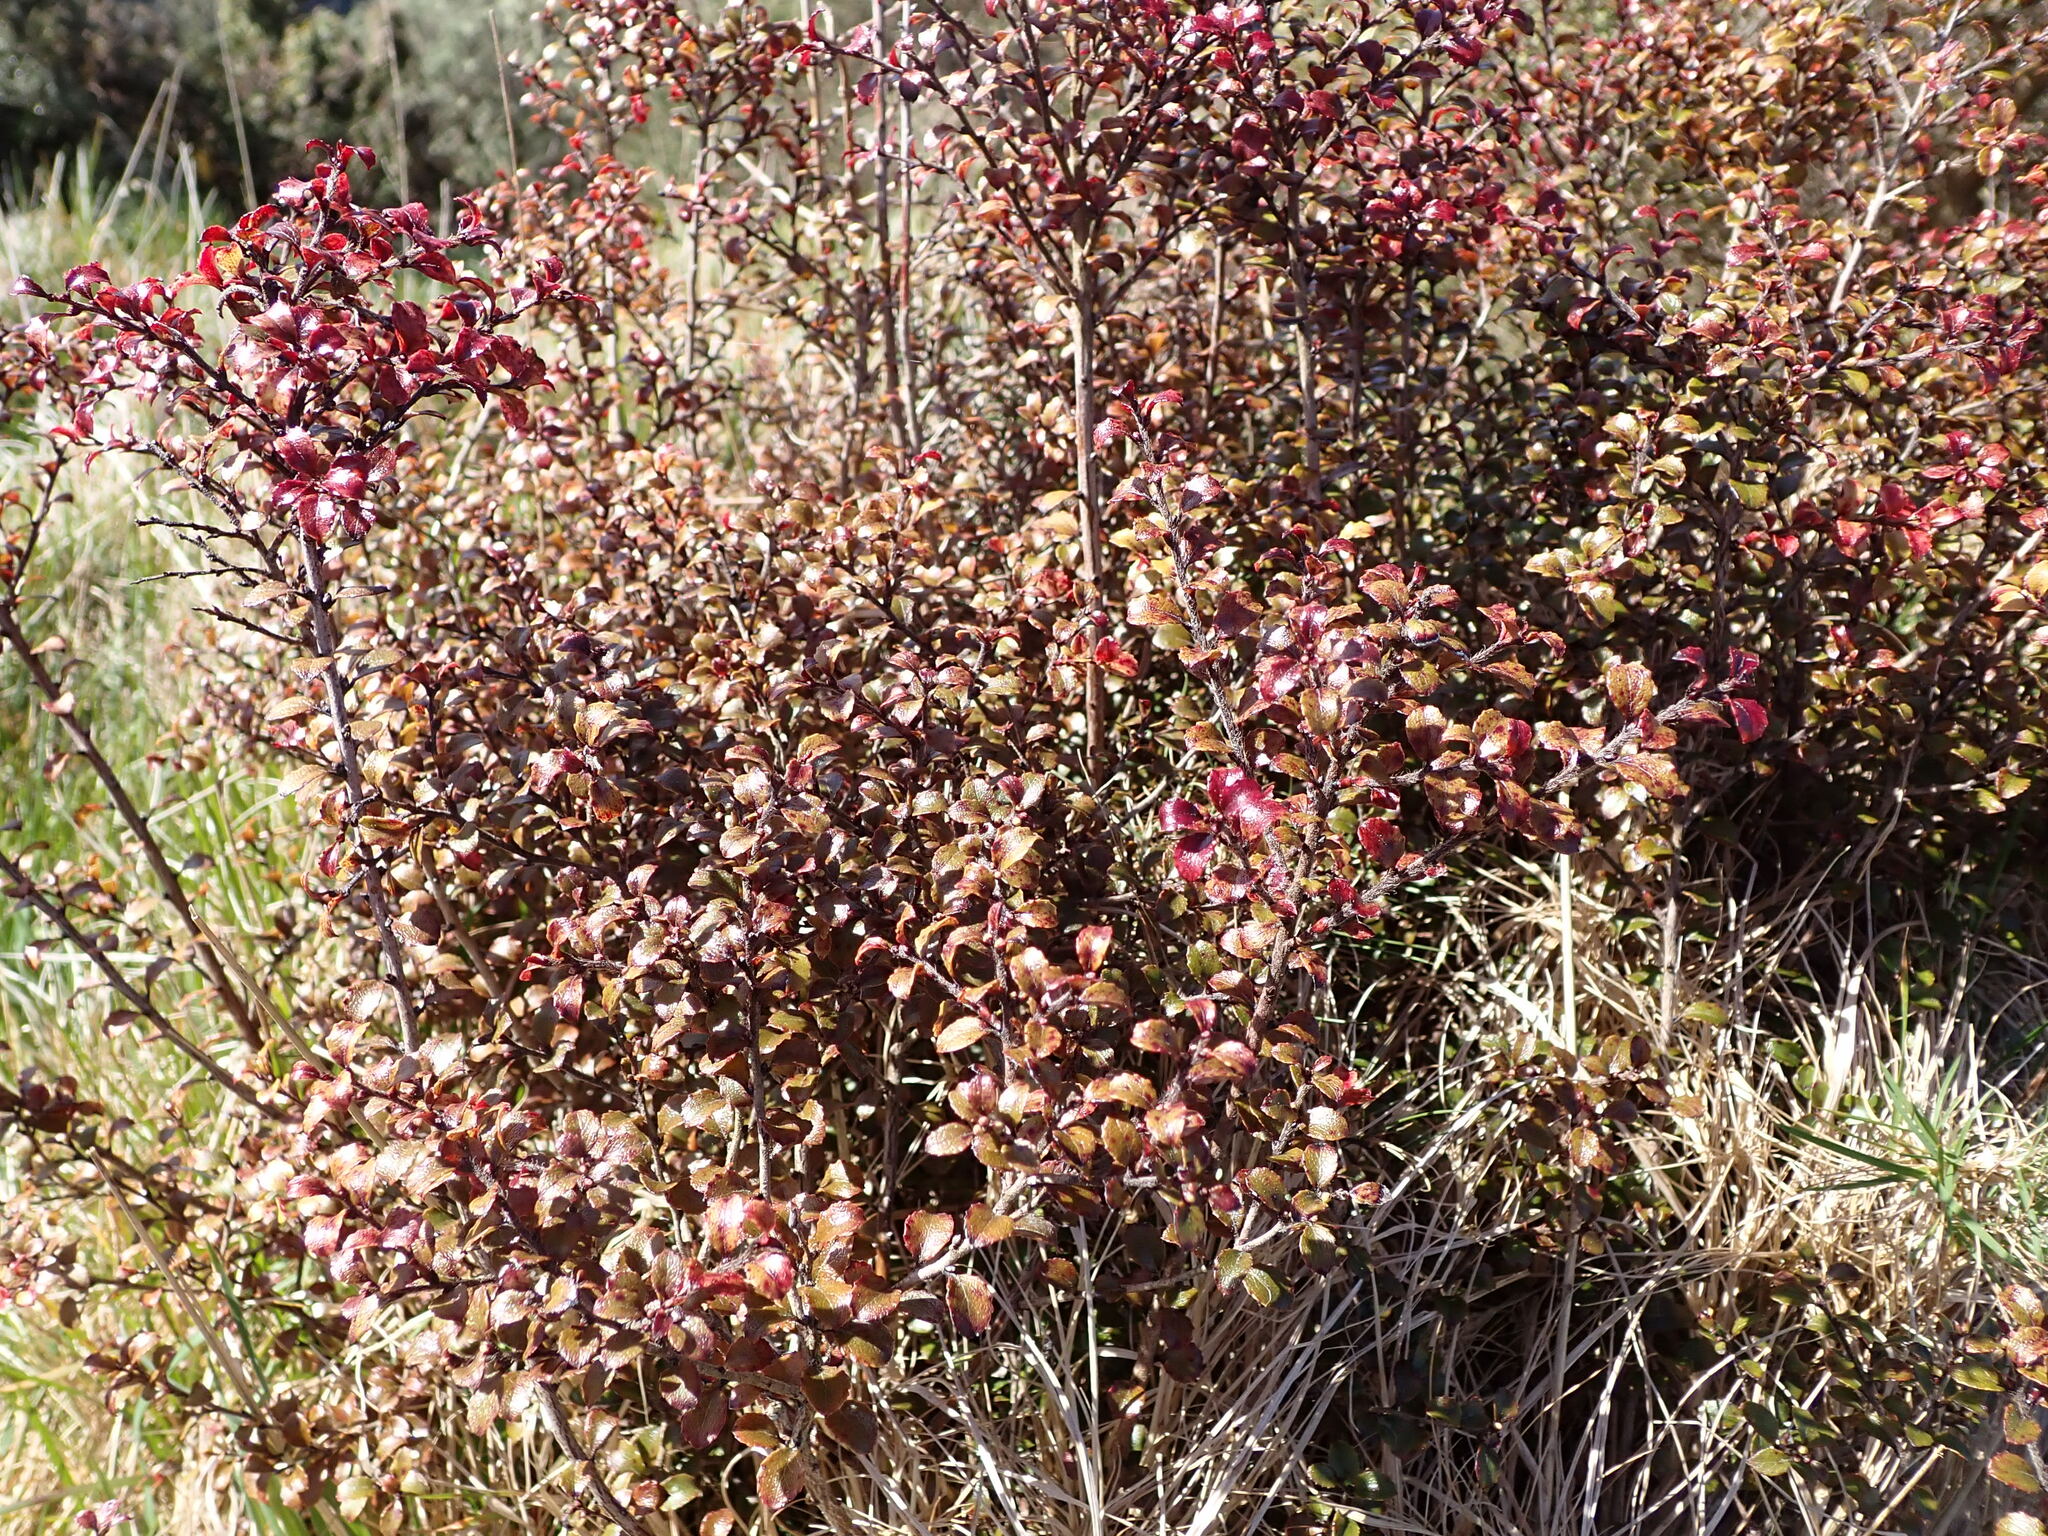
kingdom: Plantae
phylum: Tracheophyta
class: Magnoliopsida
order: Ericales
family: Ericaceae
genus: Gaultheria
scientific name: Gaultheria antipoda
